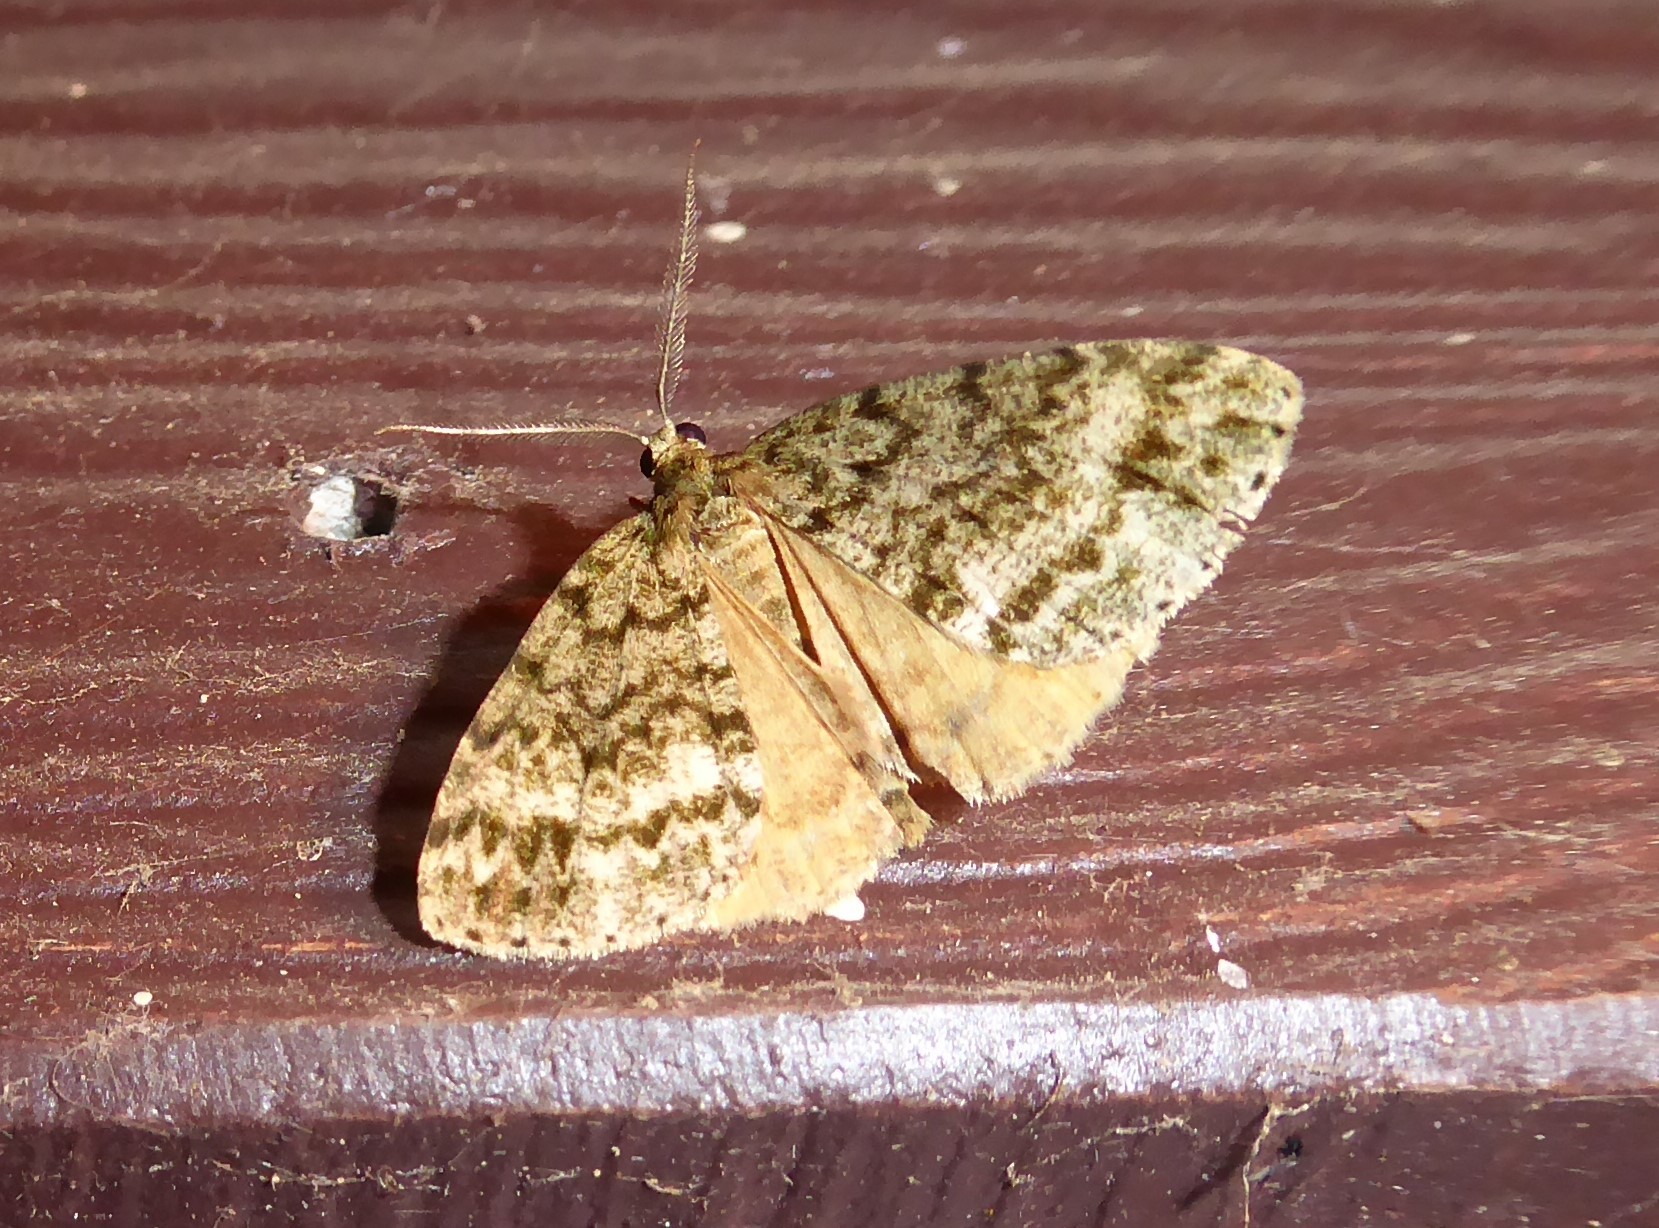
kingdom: Animalia
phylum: Arthropoda
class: Insecta
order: Lepidoptera
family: Geometridae
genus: Pseudocoremia
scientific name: Pseudocoremia indistincta
